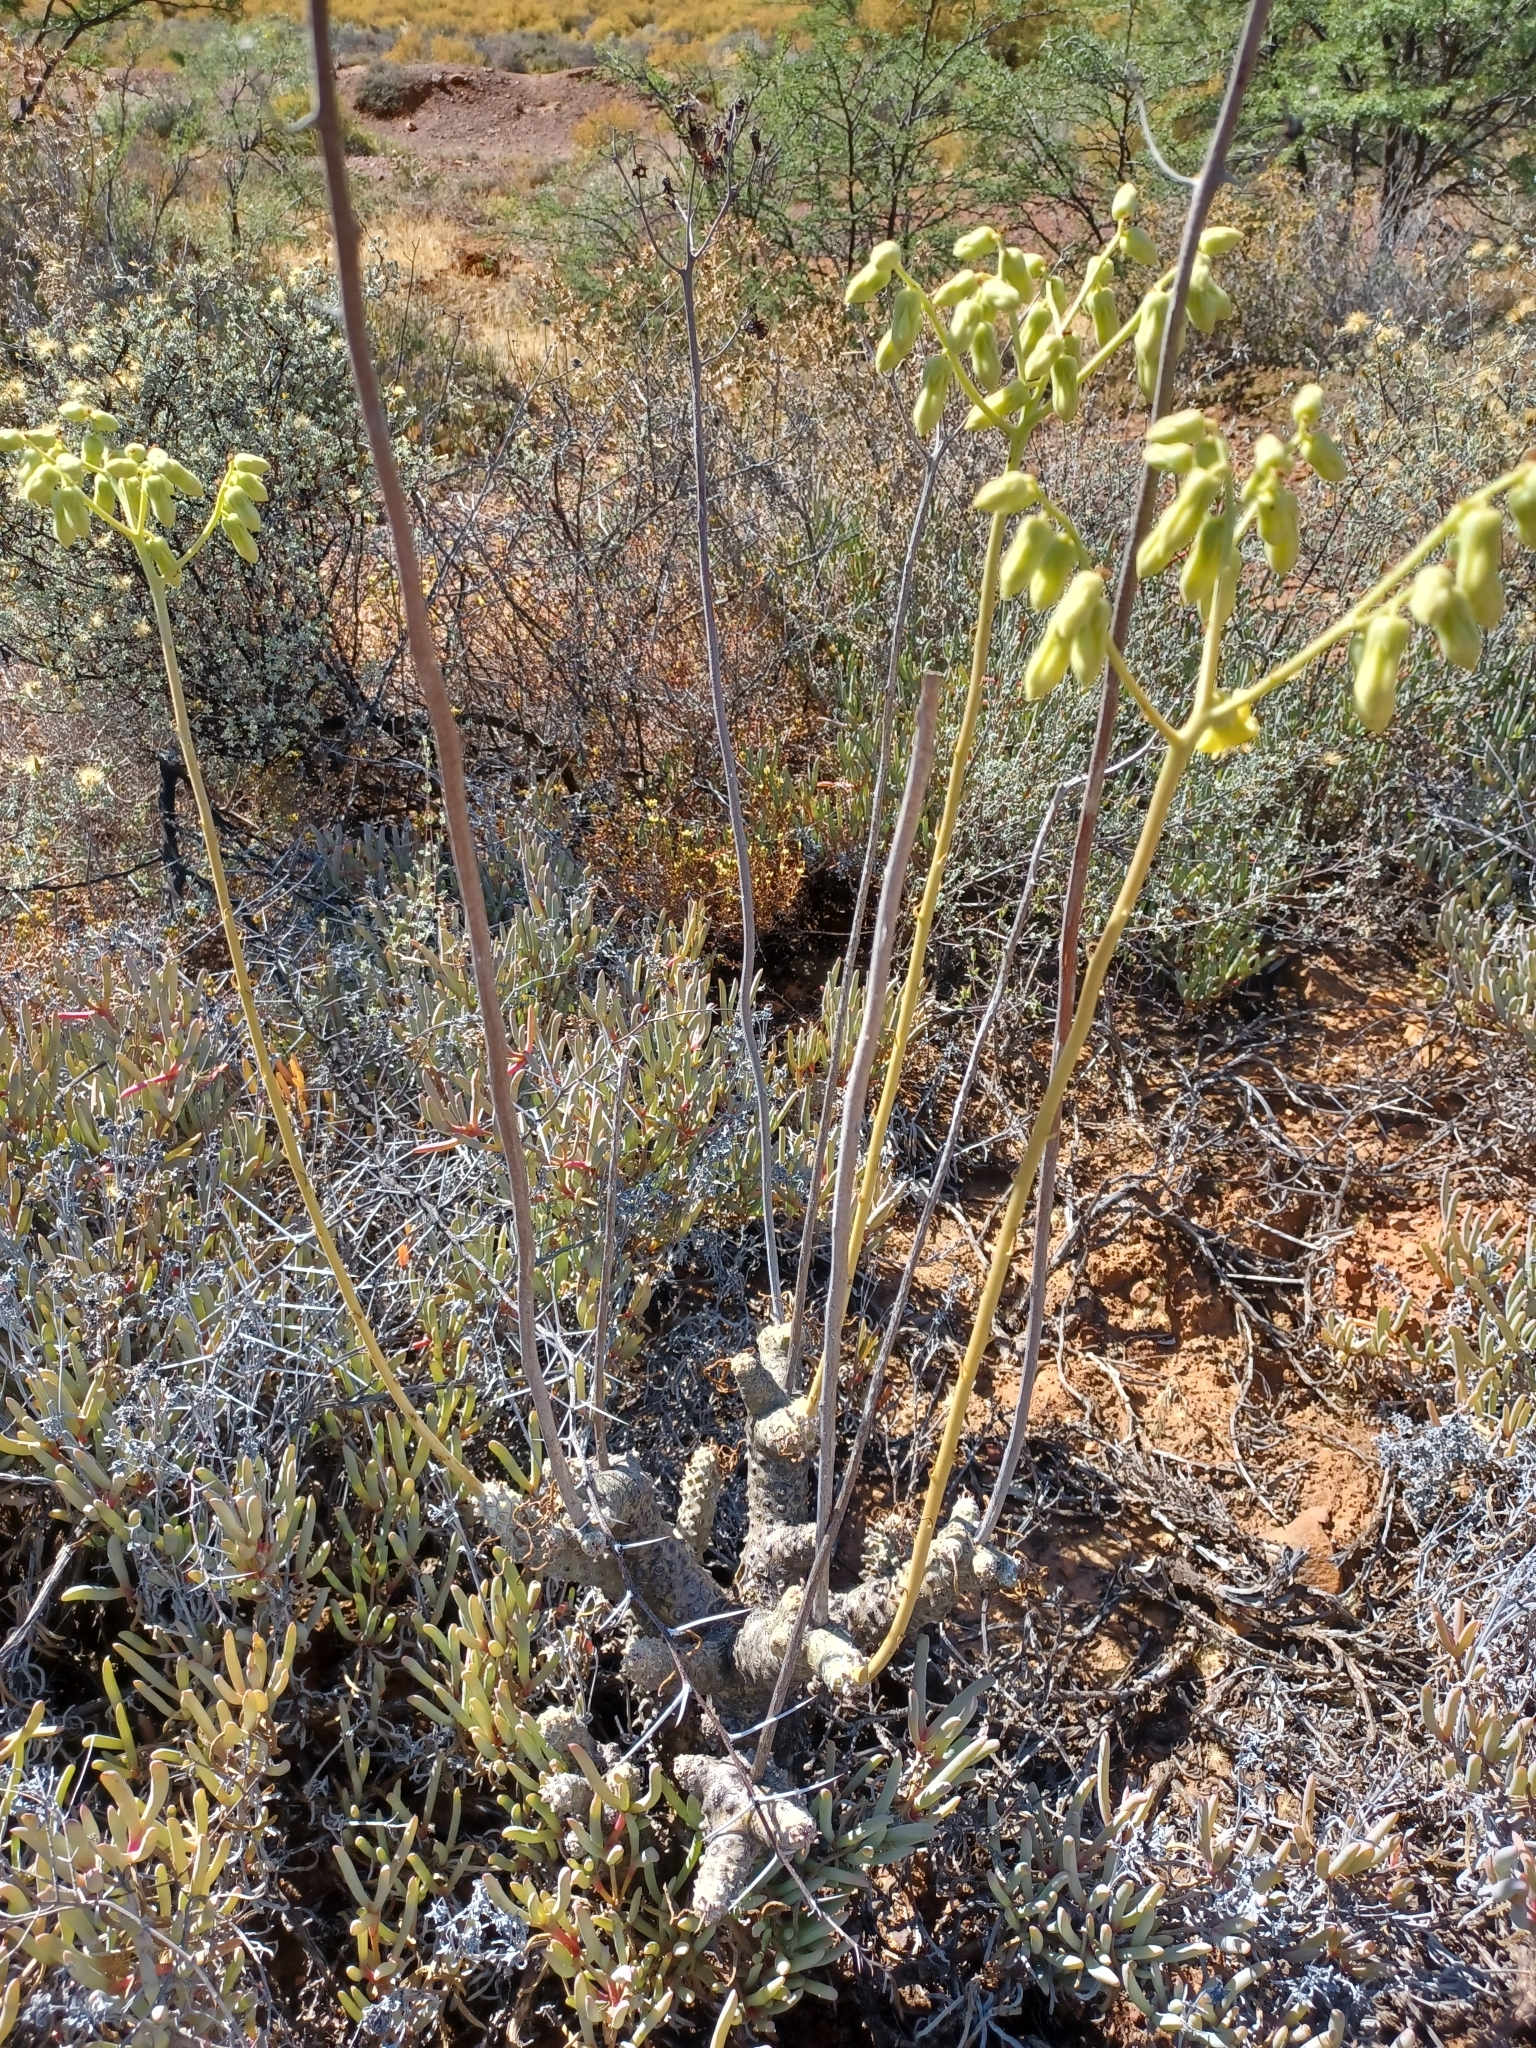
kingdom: Plantae
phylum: Tracheophyta
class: Magnoliopsida
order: Saxifragales
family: Crassulaceae
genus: Tylecodon
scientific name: Tylecodon wallichii
